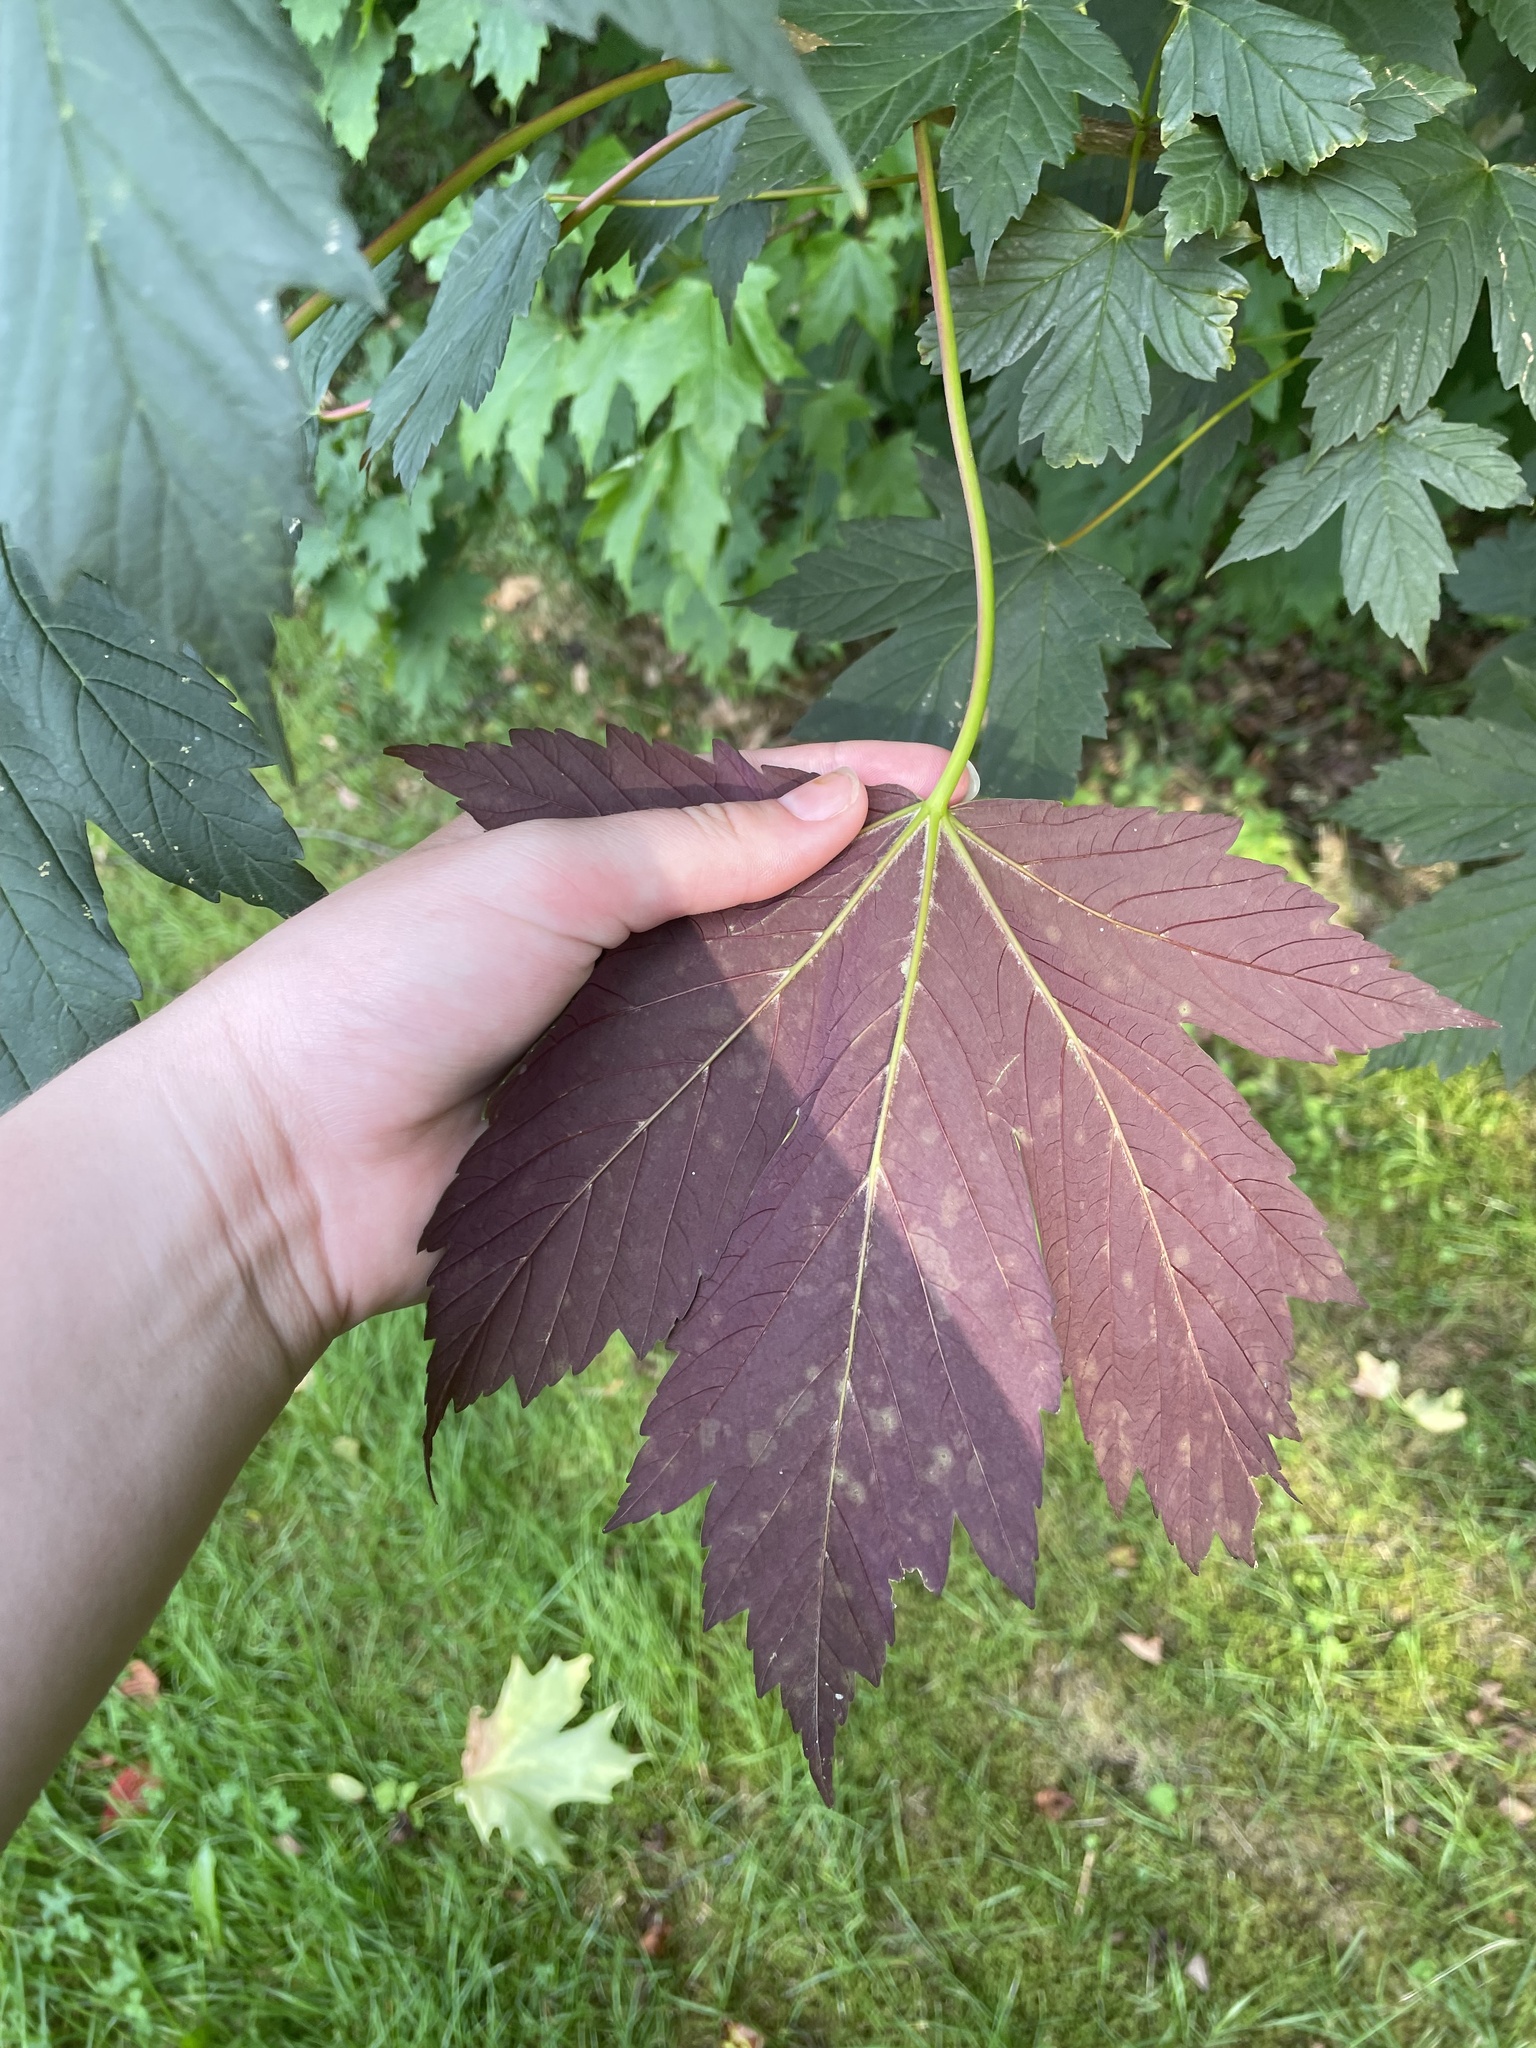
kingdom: Plantae
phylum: Tracheophyta
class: Magnoliopsida
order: Sapindales
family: Sapindaceae
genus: Acer
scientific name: Acer pseudoplatanus
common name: Sycamore
